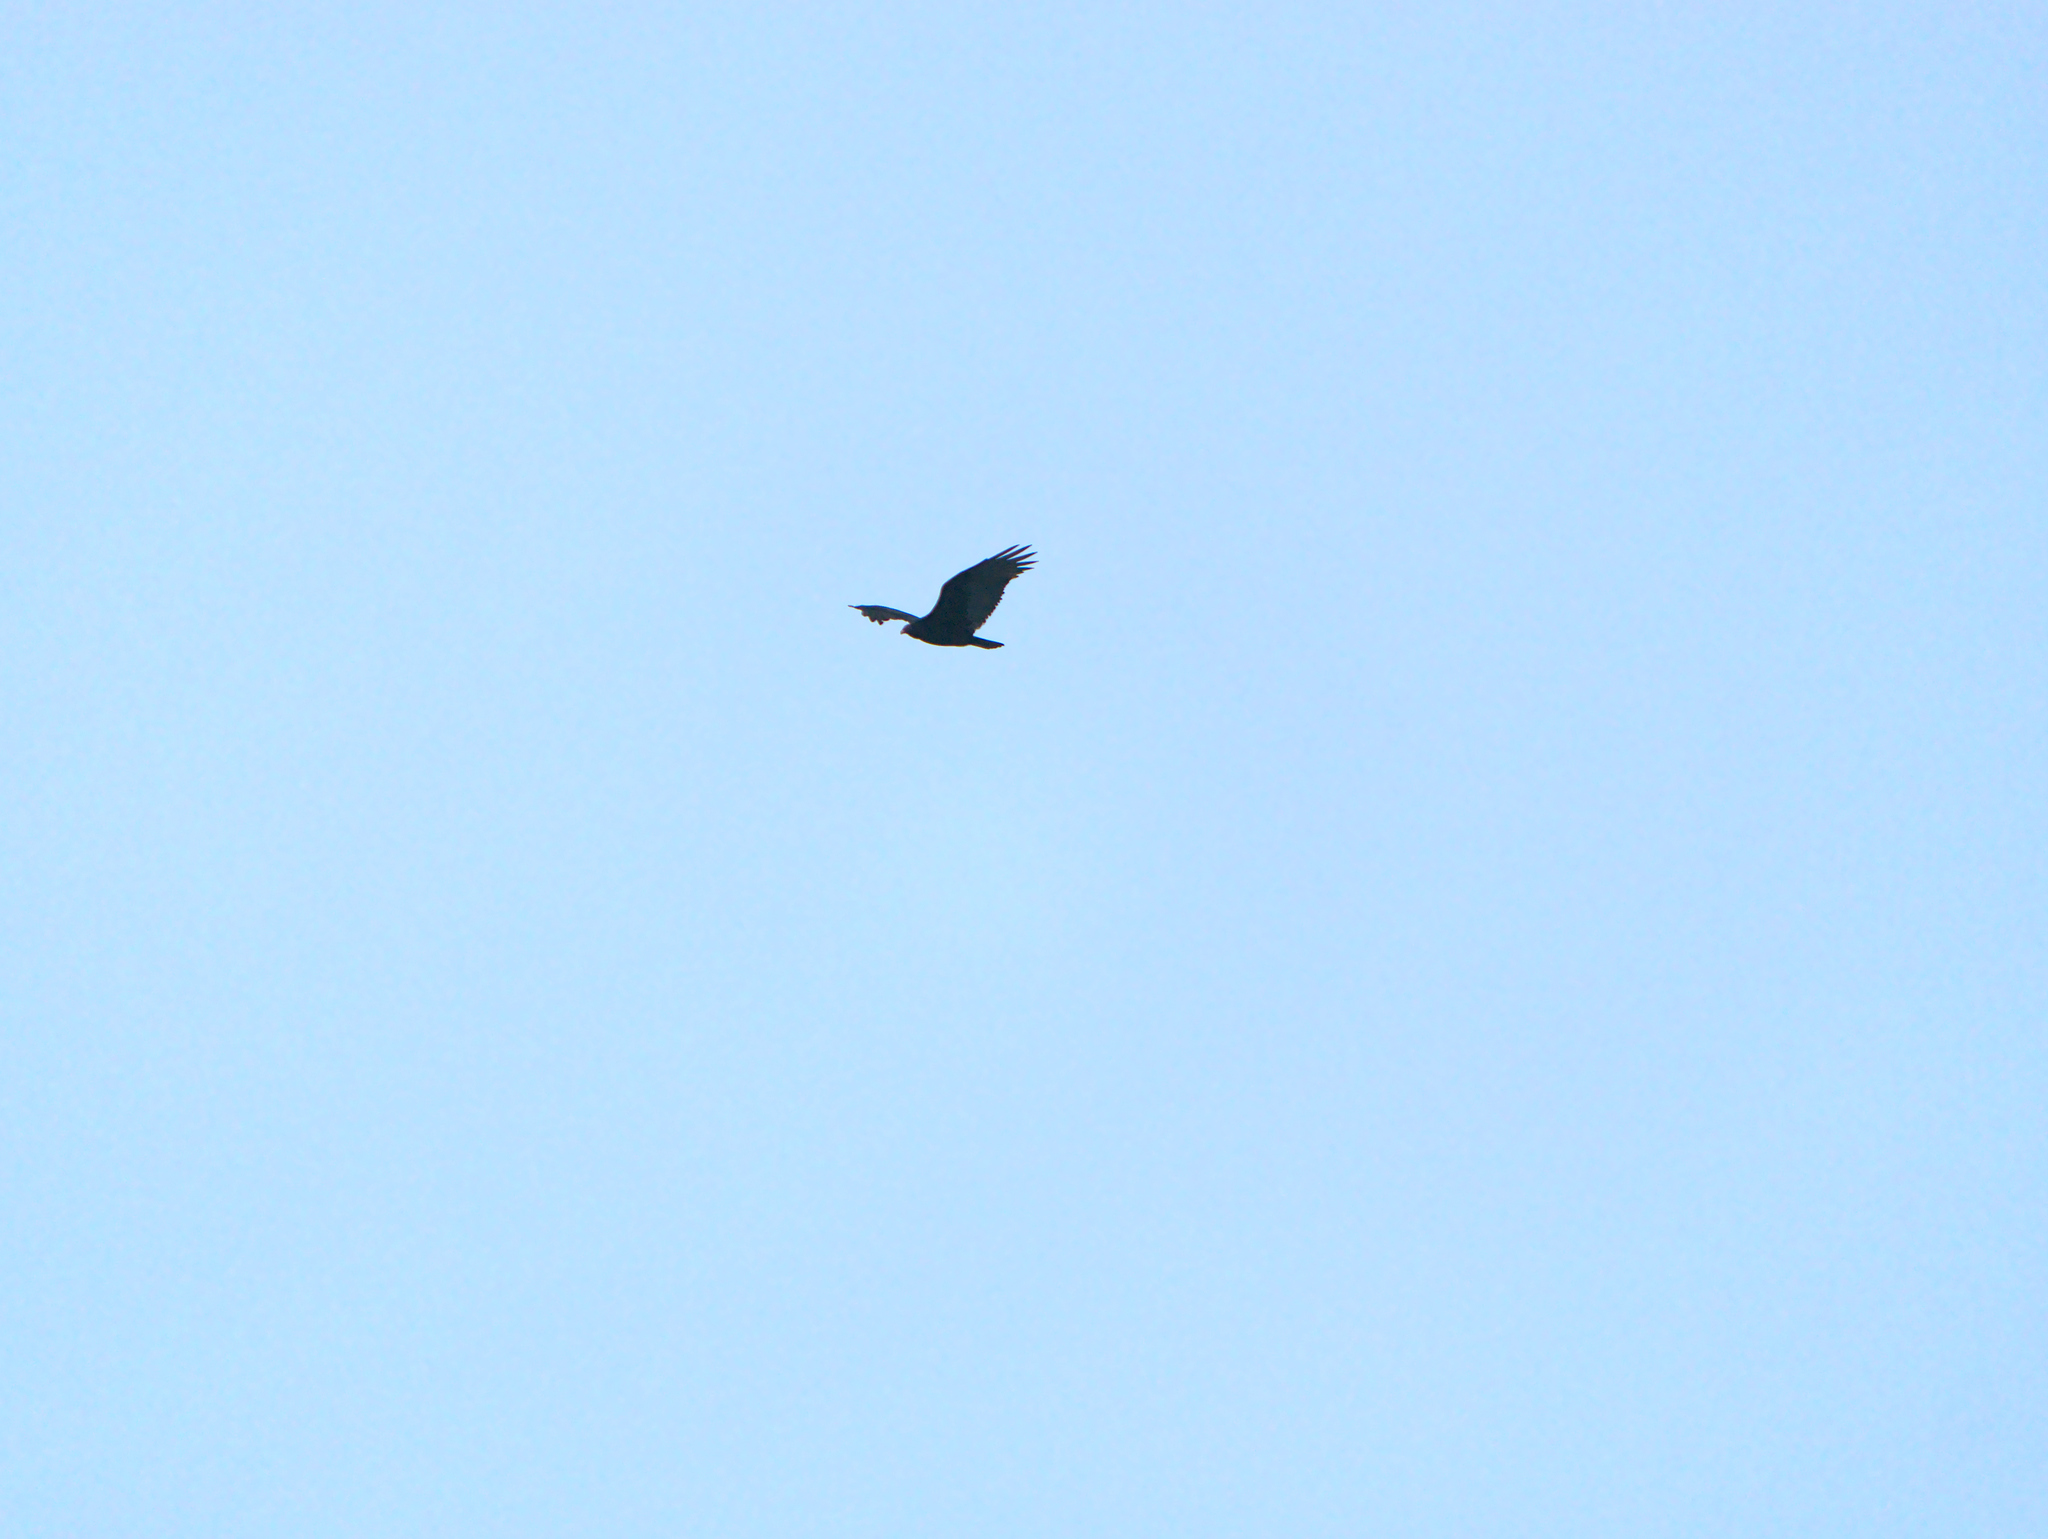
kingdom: Animalia
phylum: Chordata
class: Aves
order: Accipitriformes
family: Cathartidae
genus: Cathartes
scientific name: Cathartes aura
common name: Turkey vulture
